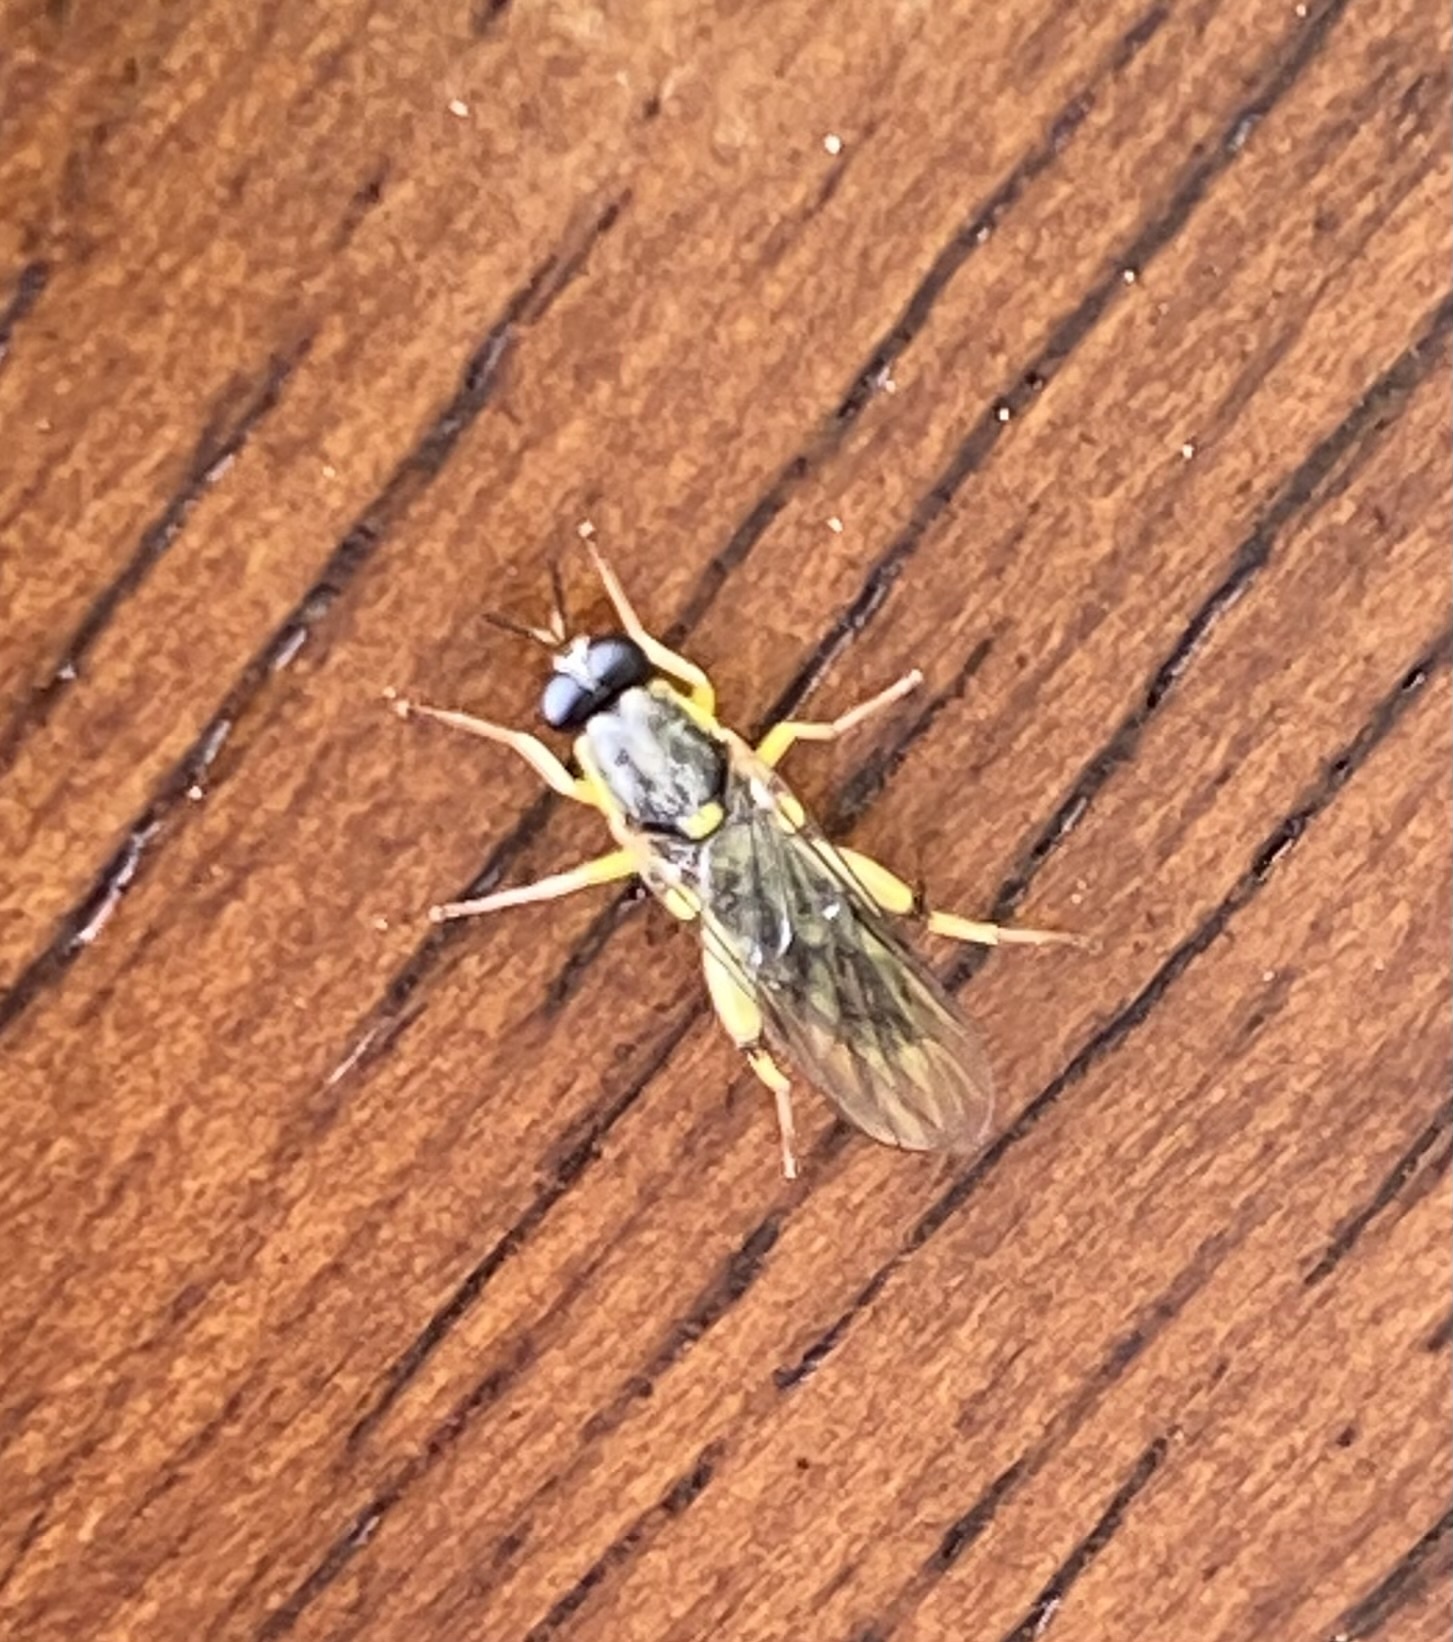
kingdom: Animalia
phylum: Arthropoda
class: Insecta
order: Diptera
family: Xylomyidae
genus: Solva
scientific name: Solva pallipes
